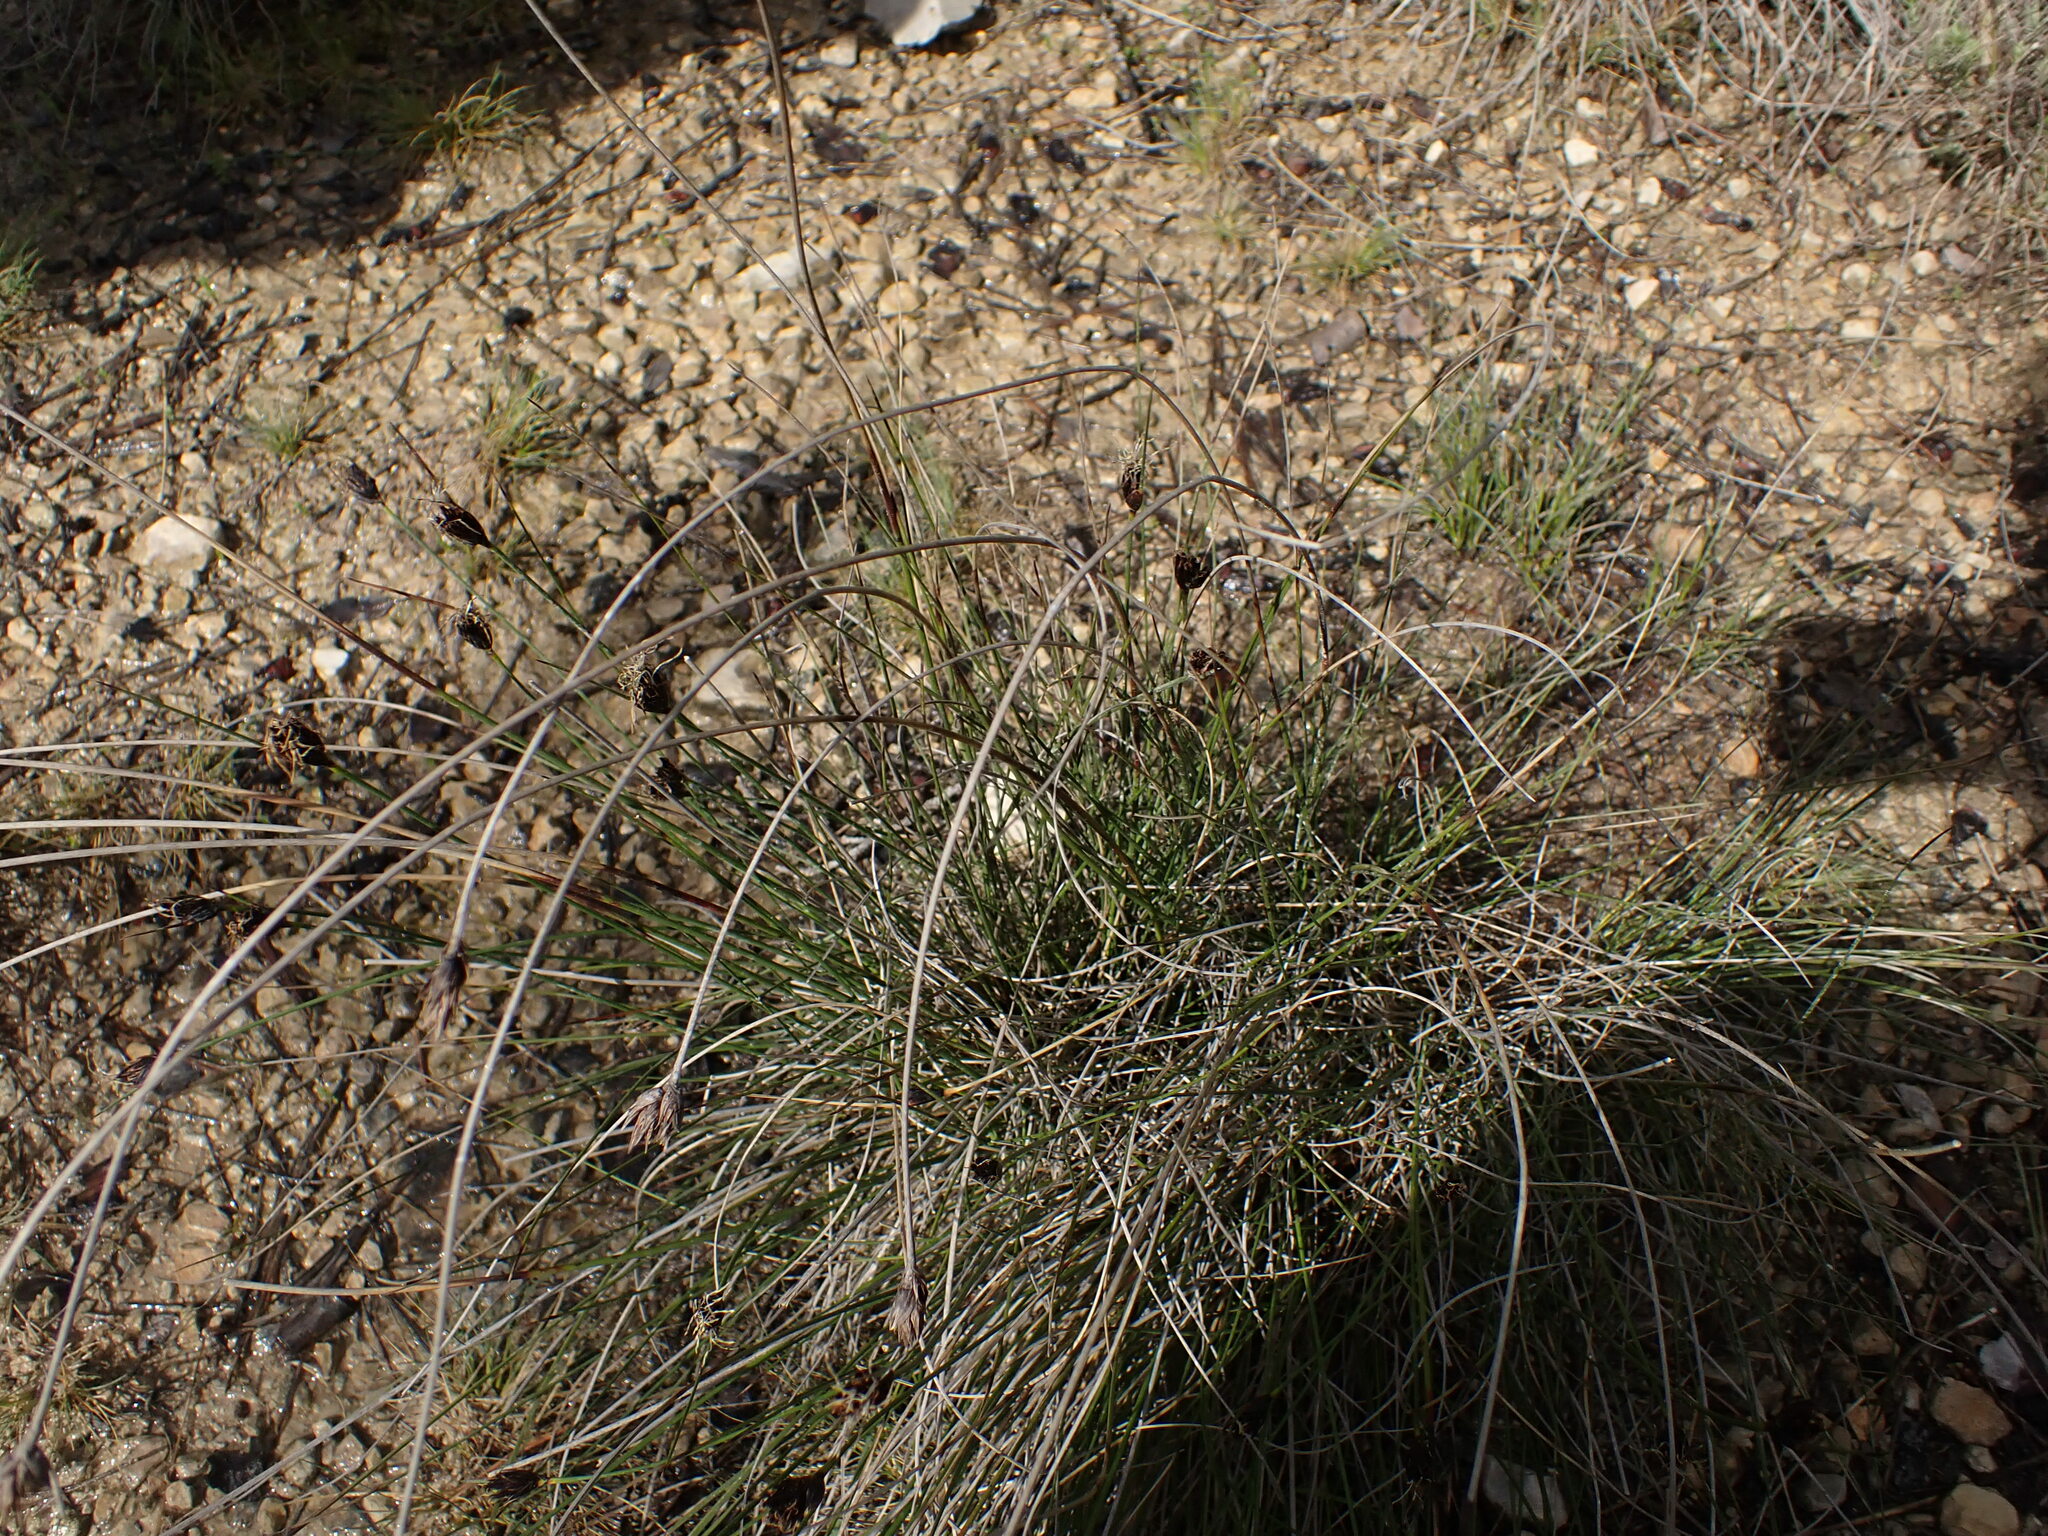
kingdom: Plantae
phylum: Tracheophyta
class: Liliopsida
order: Poales
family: Cyperaceae
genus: Schoenus
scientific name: Schoenus nigricans
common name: Black bog-rush
